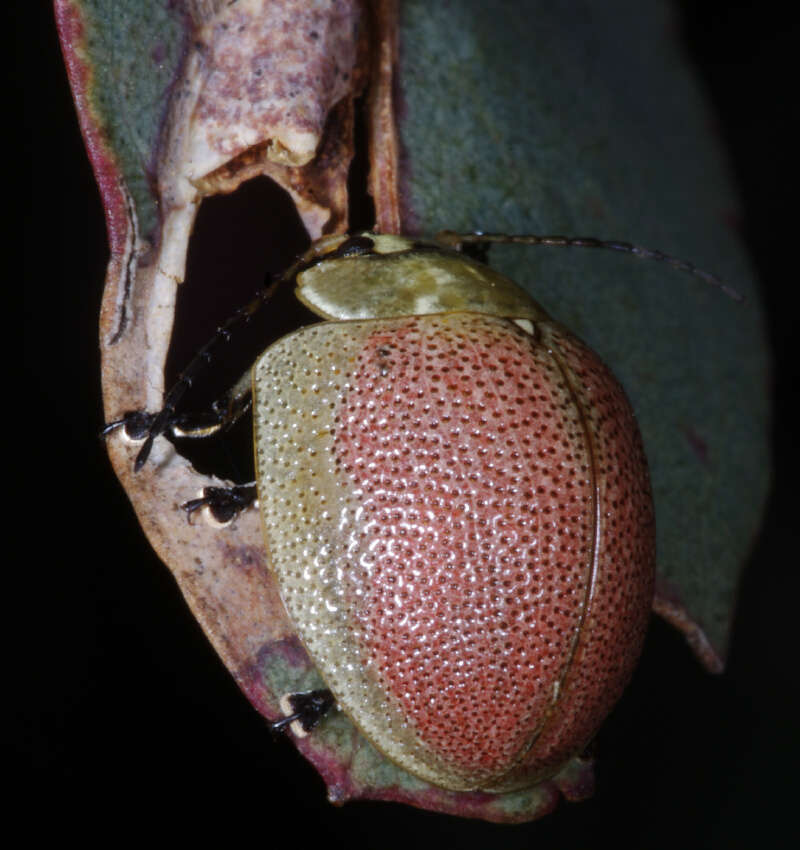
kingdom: Animalia
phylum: Arthropoda
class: Insecta
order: Coleoptera
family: Chrysomelidae
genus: Paropsis
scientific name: Paropsis
